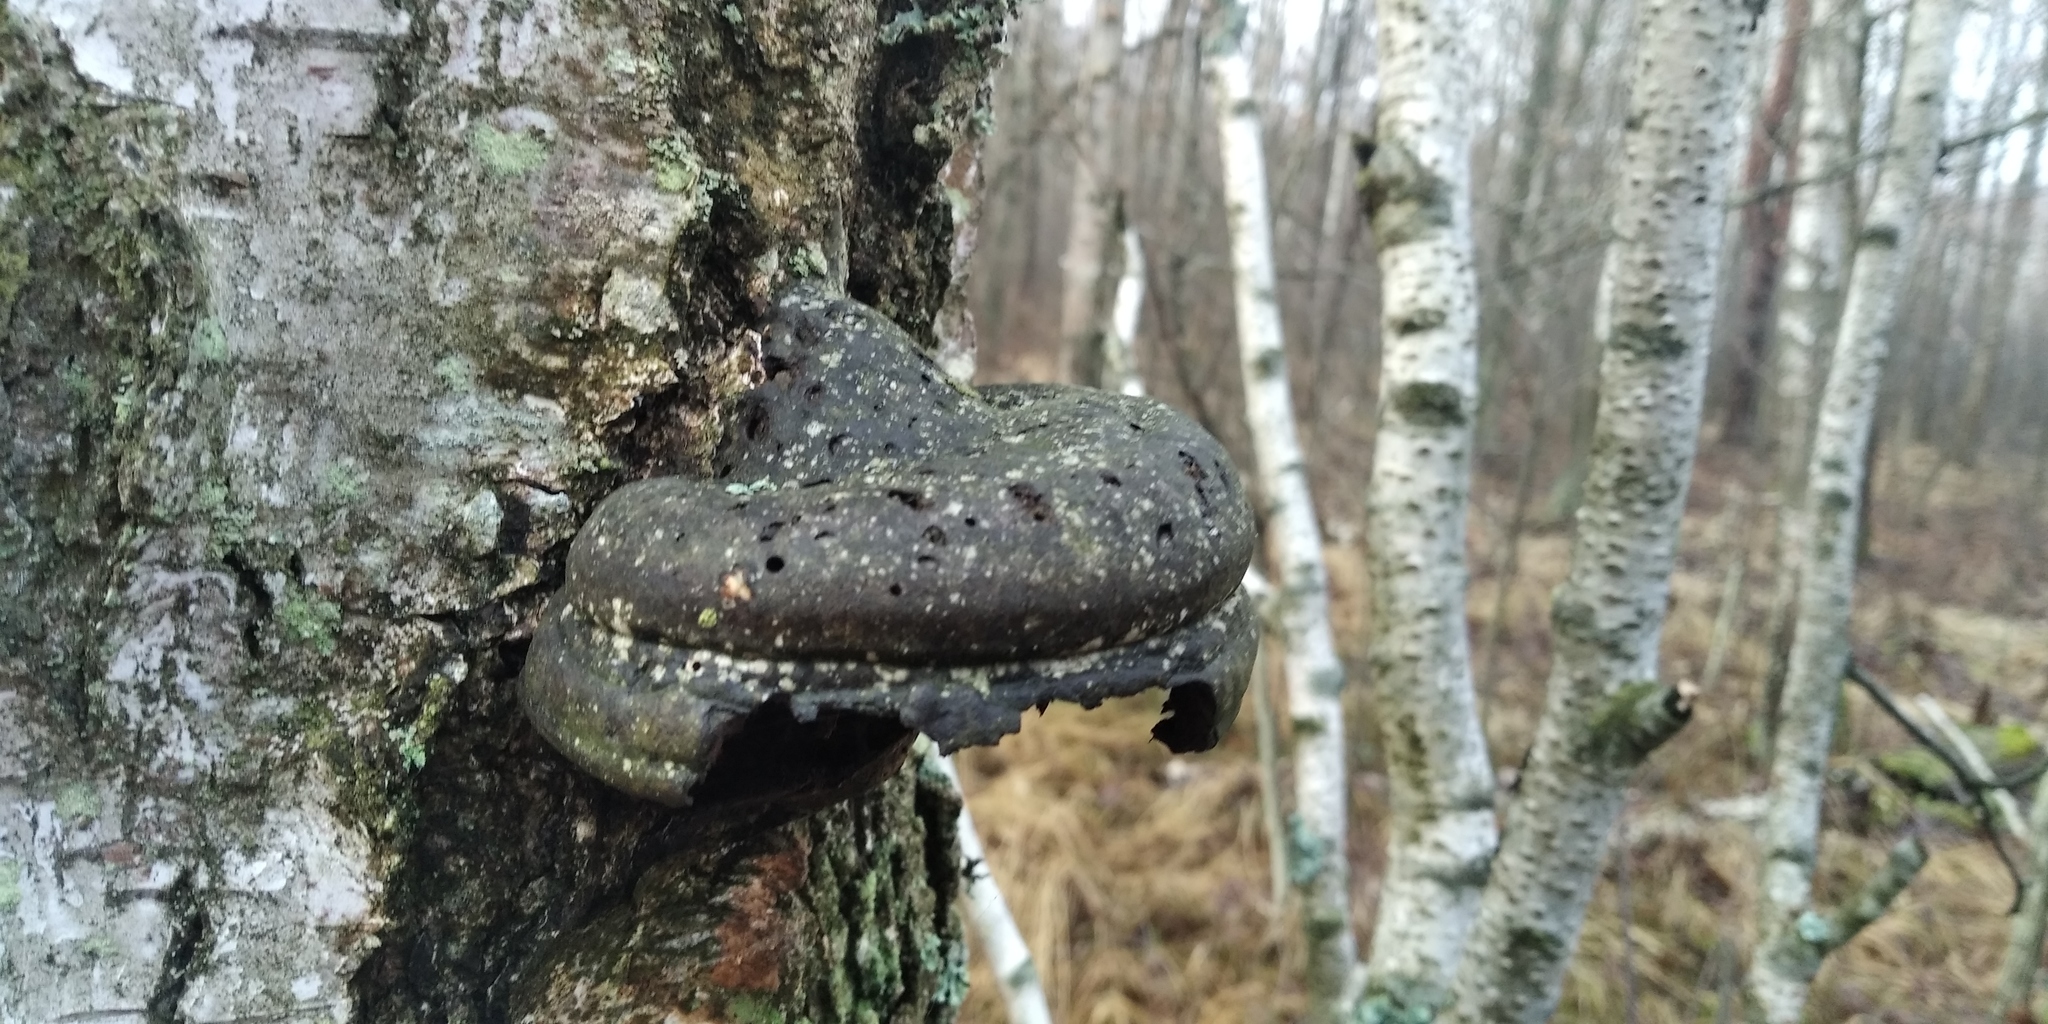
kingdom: Fungi
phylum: Basidiomycota
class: Agaricomycetes
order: Polyporales
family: Polyporaceae
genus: Fomes
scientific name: Fomes fomentarius
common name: Hoof fungus
